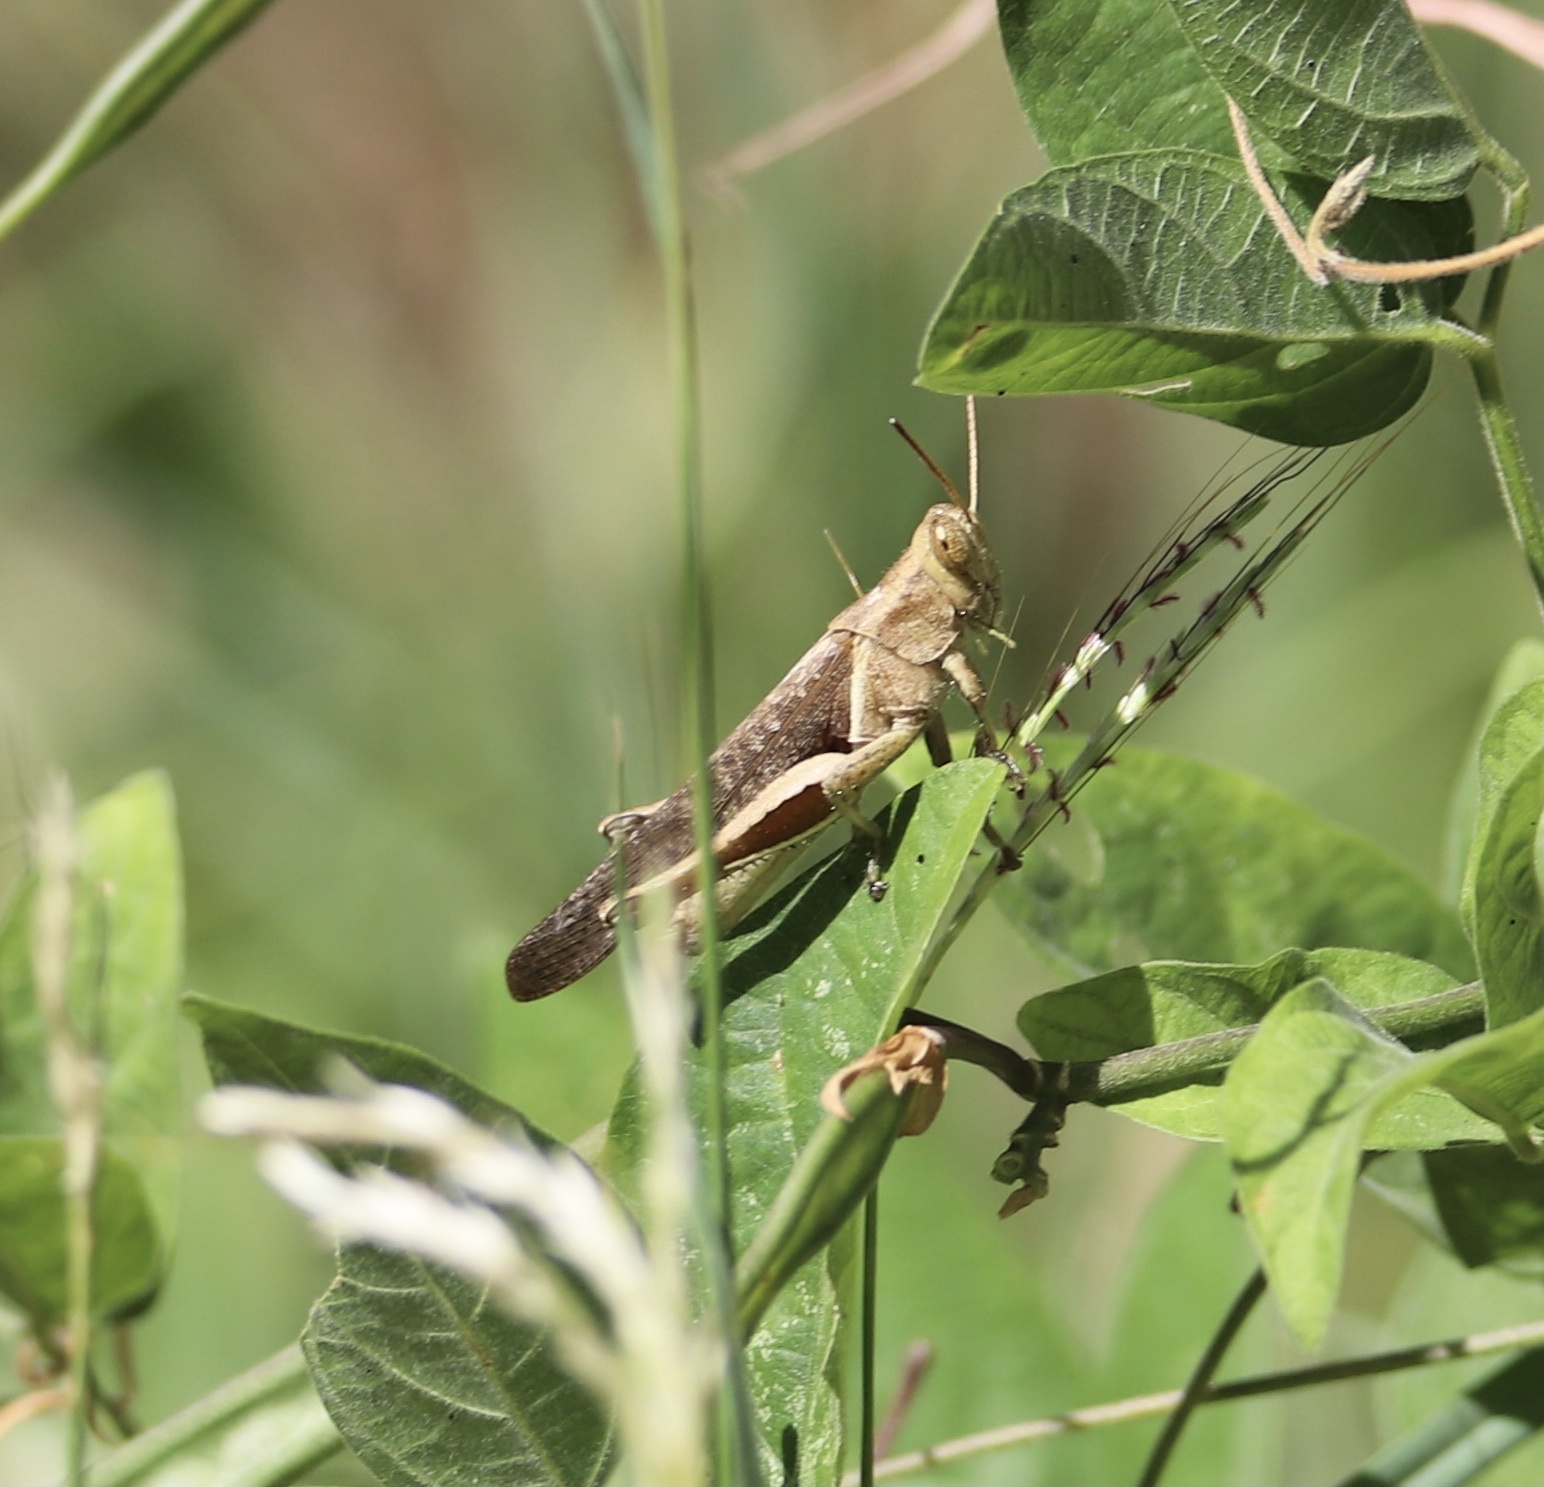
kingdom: Animalia
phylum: Arthropoda
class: Insecta
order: Orthoptera
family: Acrididae
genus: Abracris
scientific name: Abracris flavolineata
